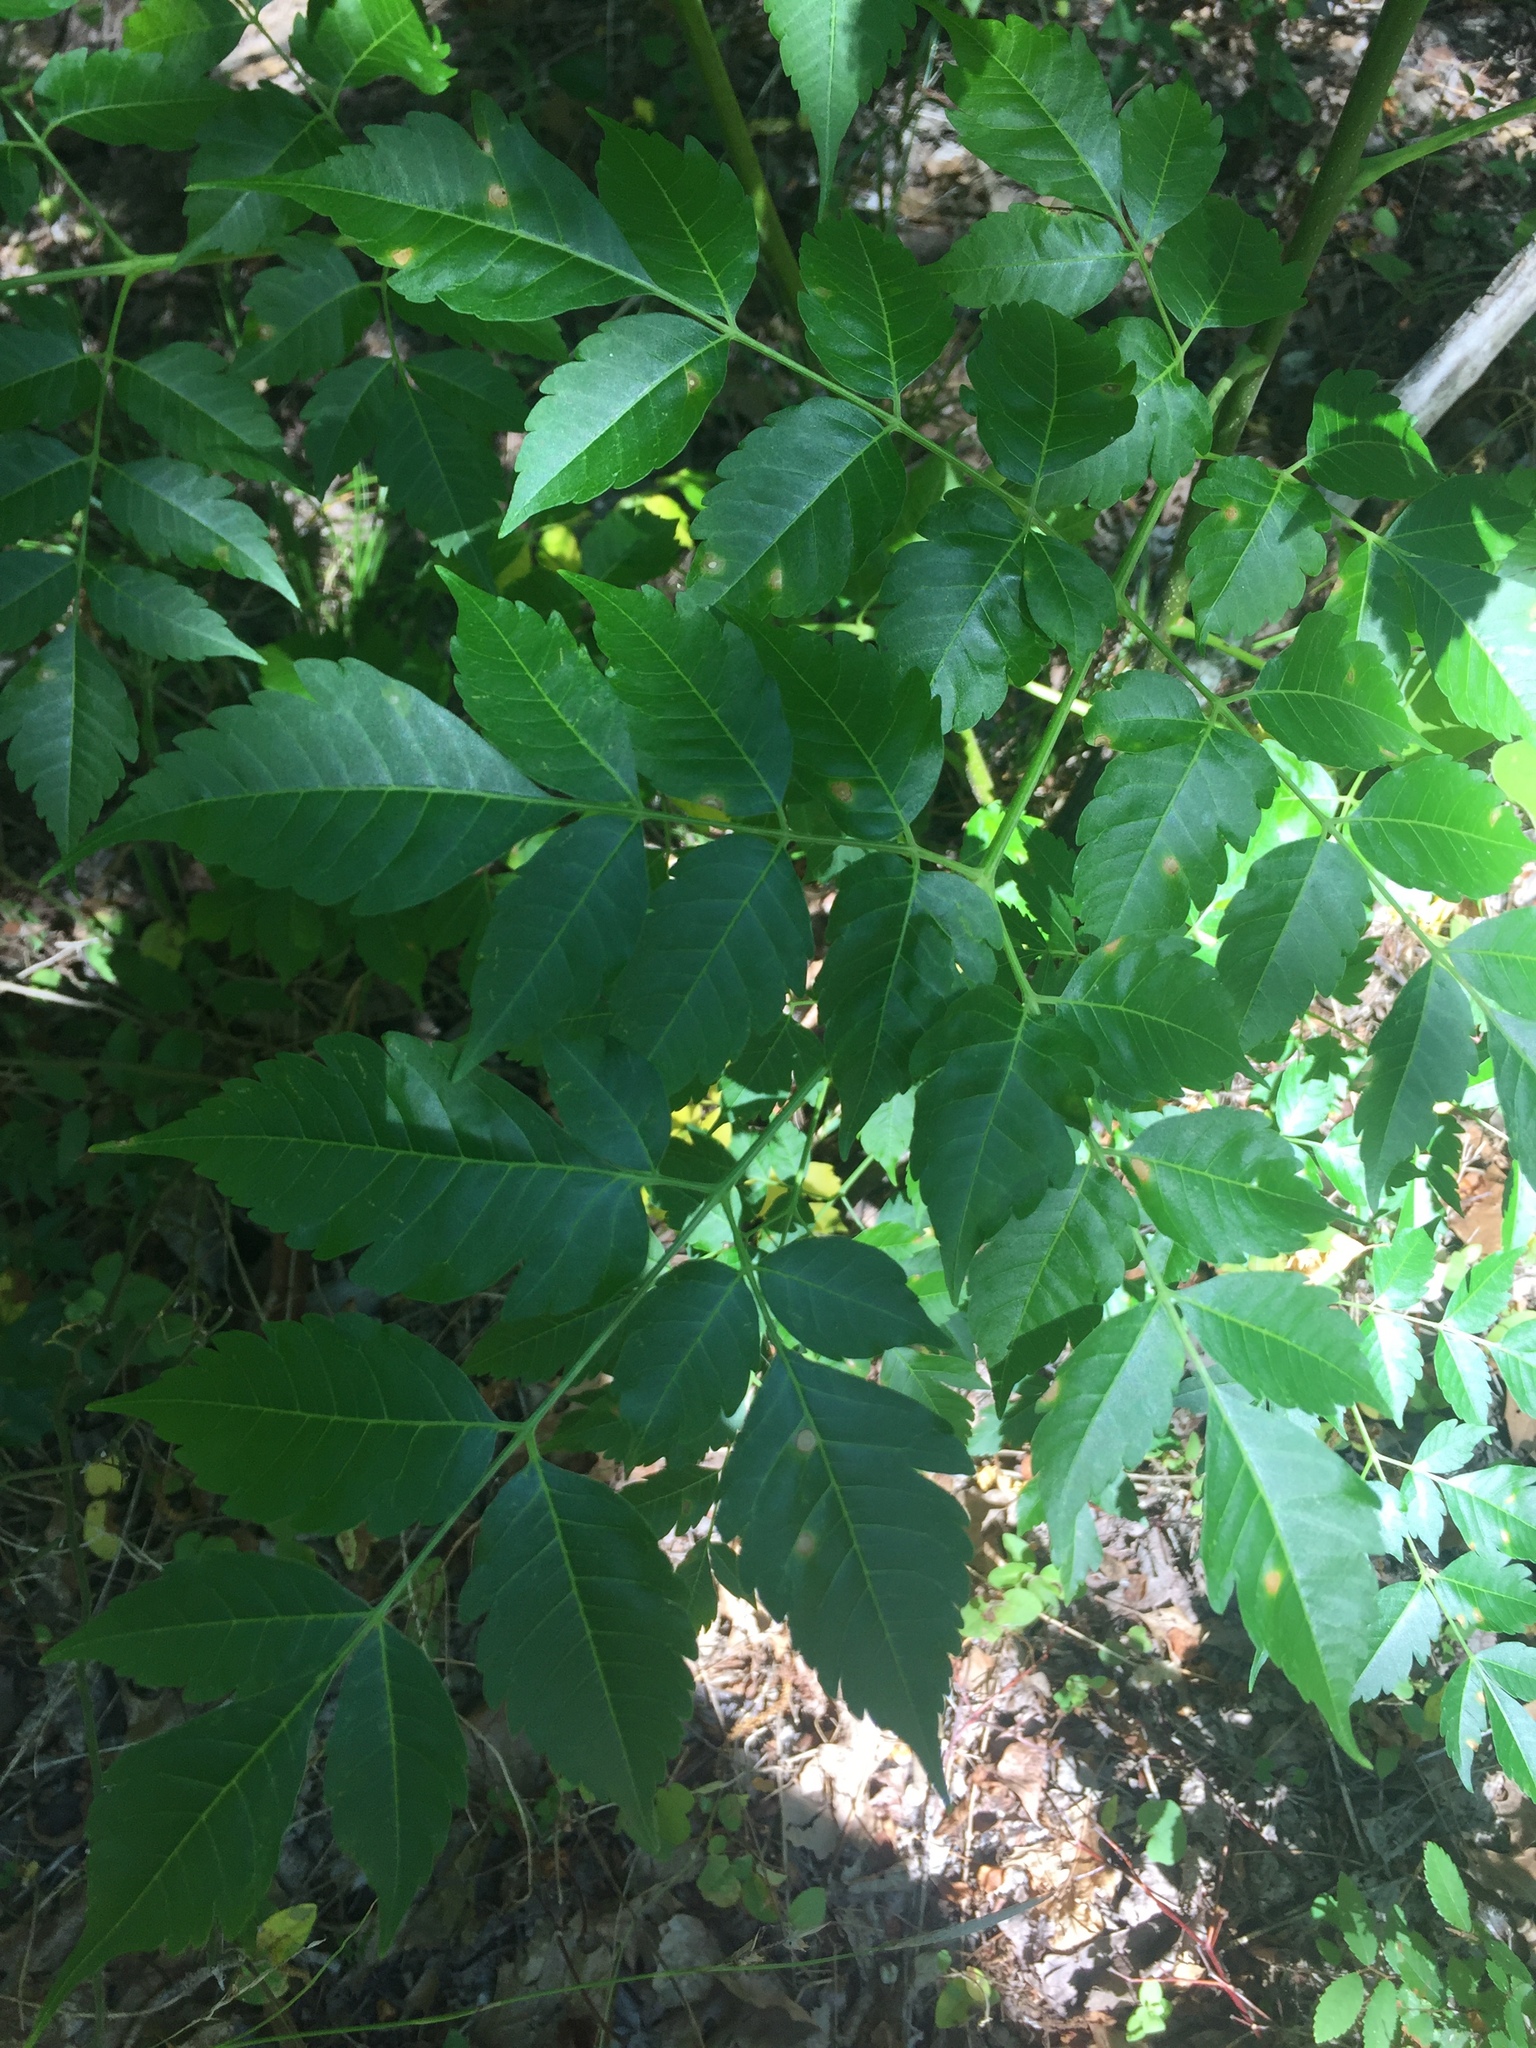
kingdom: Plantae
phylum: Tracheophyta
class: Magnoliopsida
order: Sapindales
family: Meliaceae
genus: Melia
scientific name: Melia azedarach
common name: Chinaberrytree
